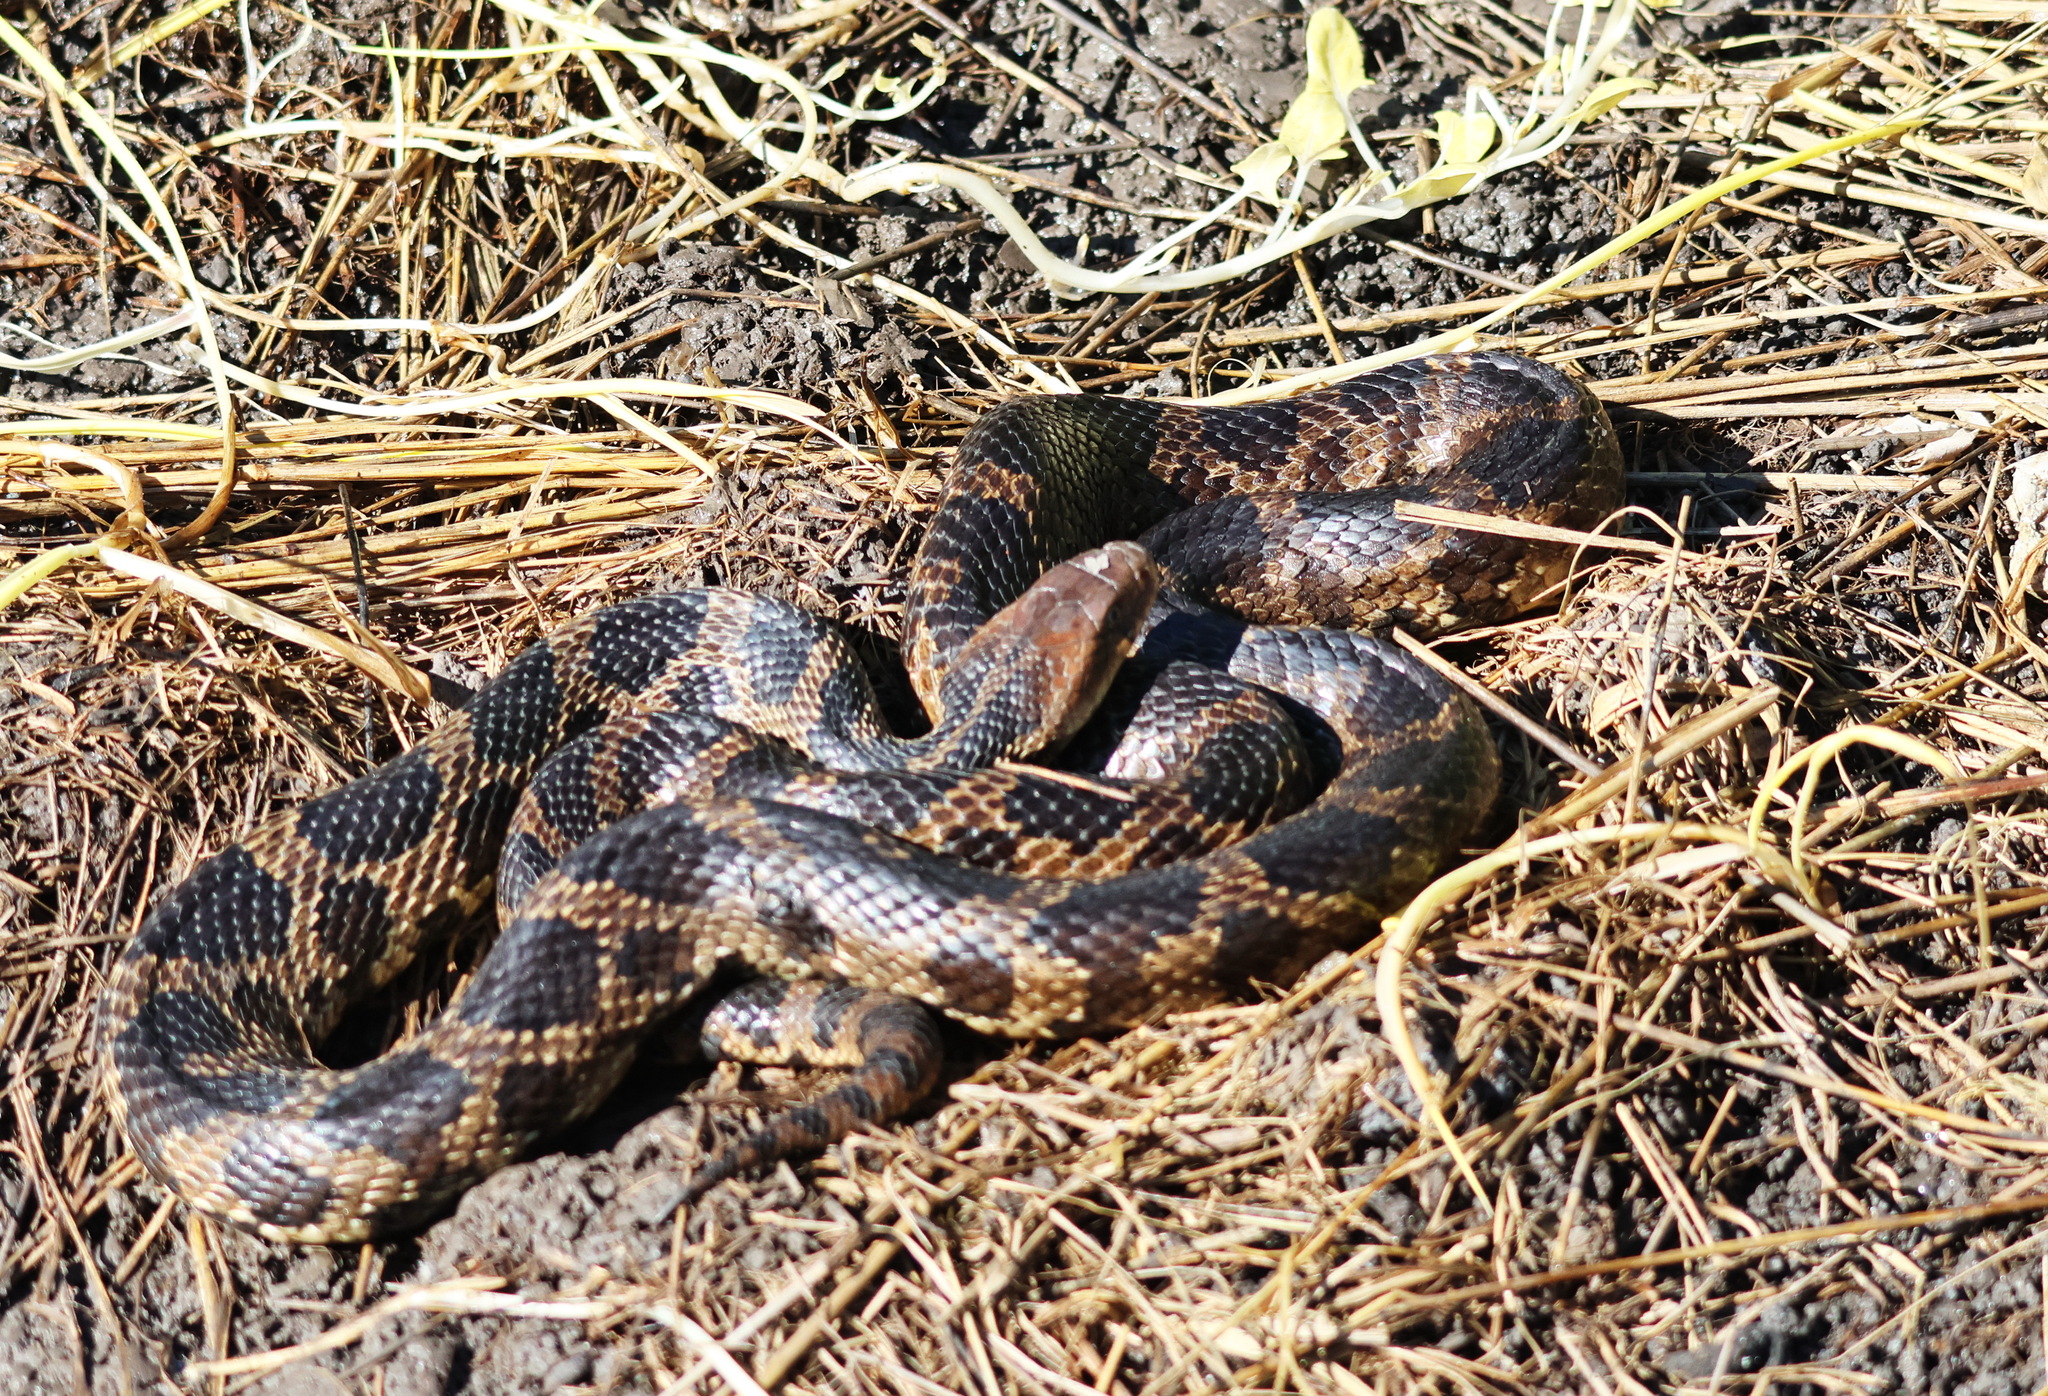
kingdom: Animalia
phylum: Chordata
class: Squamata
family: Colubridae
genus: Pantherophis
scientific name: Pantherophis vulpinus
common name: Eastern fox snake
